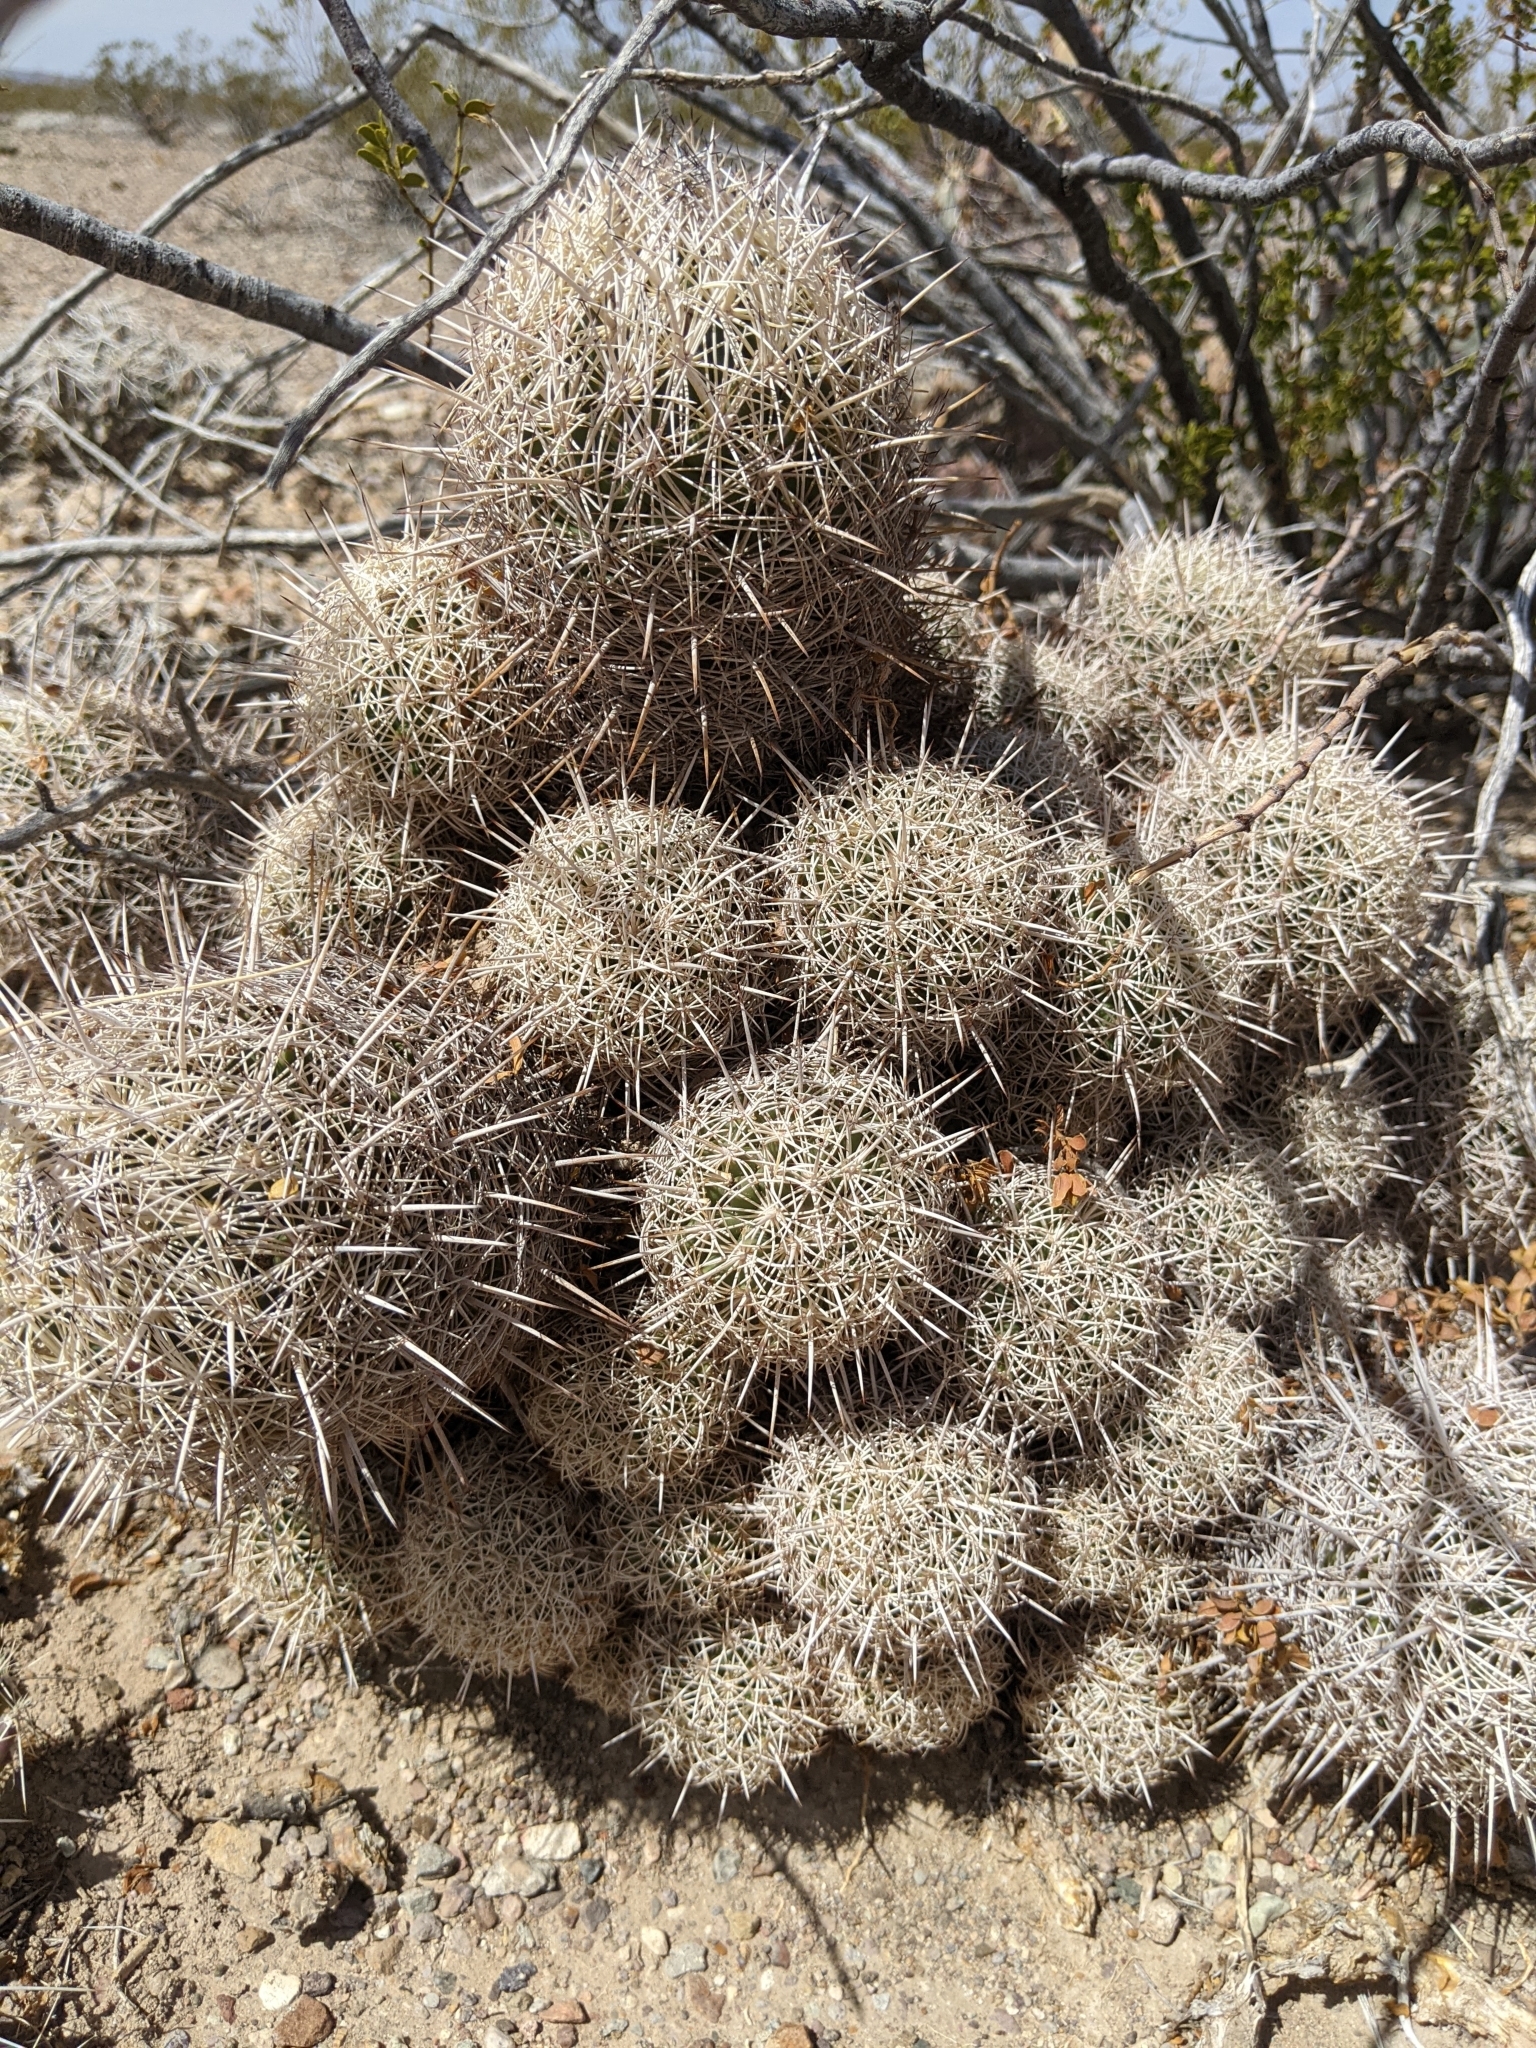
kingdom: Plantae
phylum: Tracheophyta
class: Magnoliopsida
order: Caryophyllales
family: Cactaceae
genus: Coryphantha
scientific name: Coryphantha echinus
